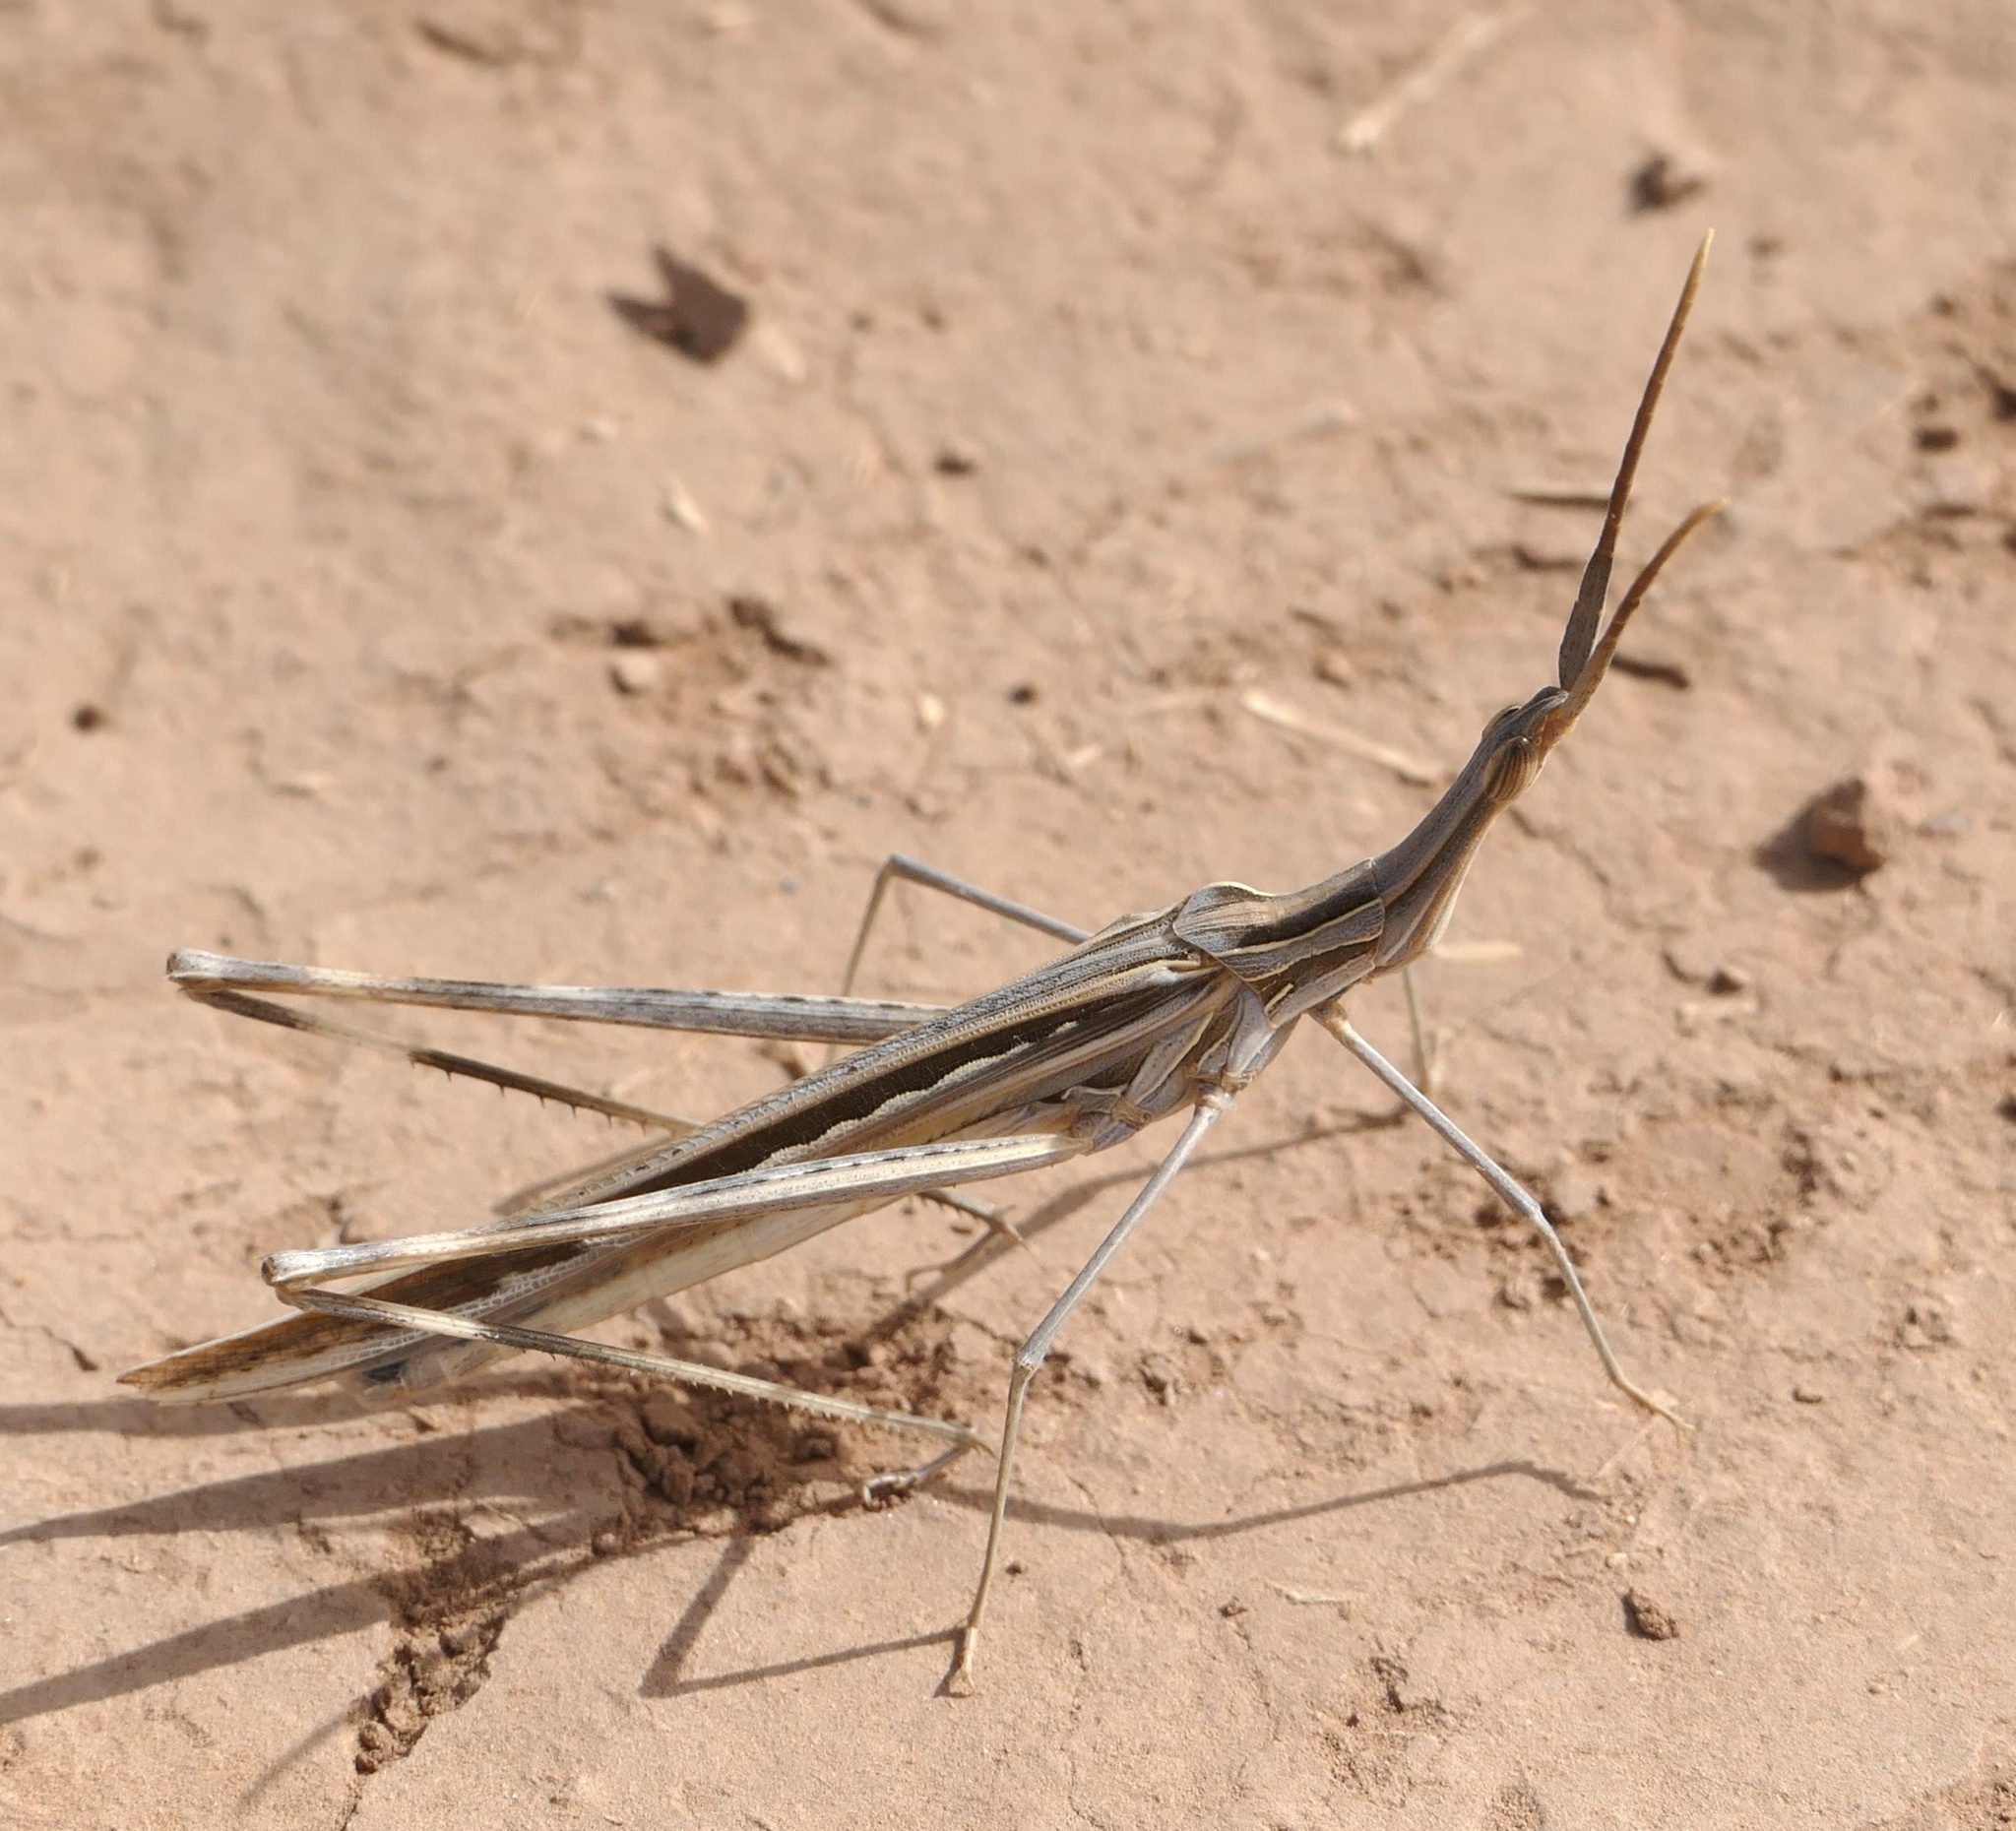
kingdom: Animalia
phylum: Arthropoda
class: Insecta
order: Orthoptera
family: Acrididae
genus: Truxalis
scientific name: Truxalis nasuta
